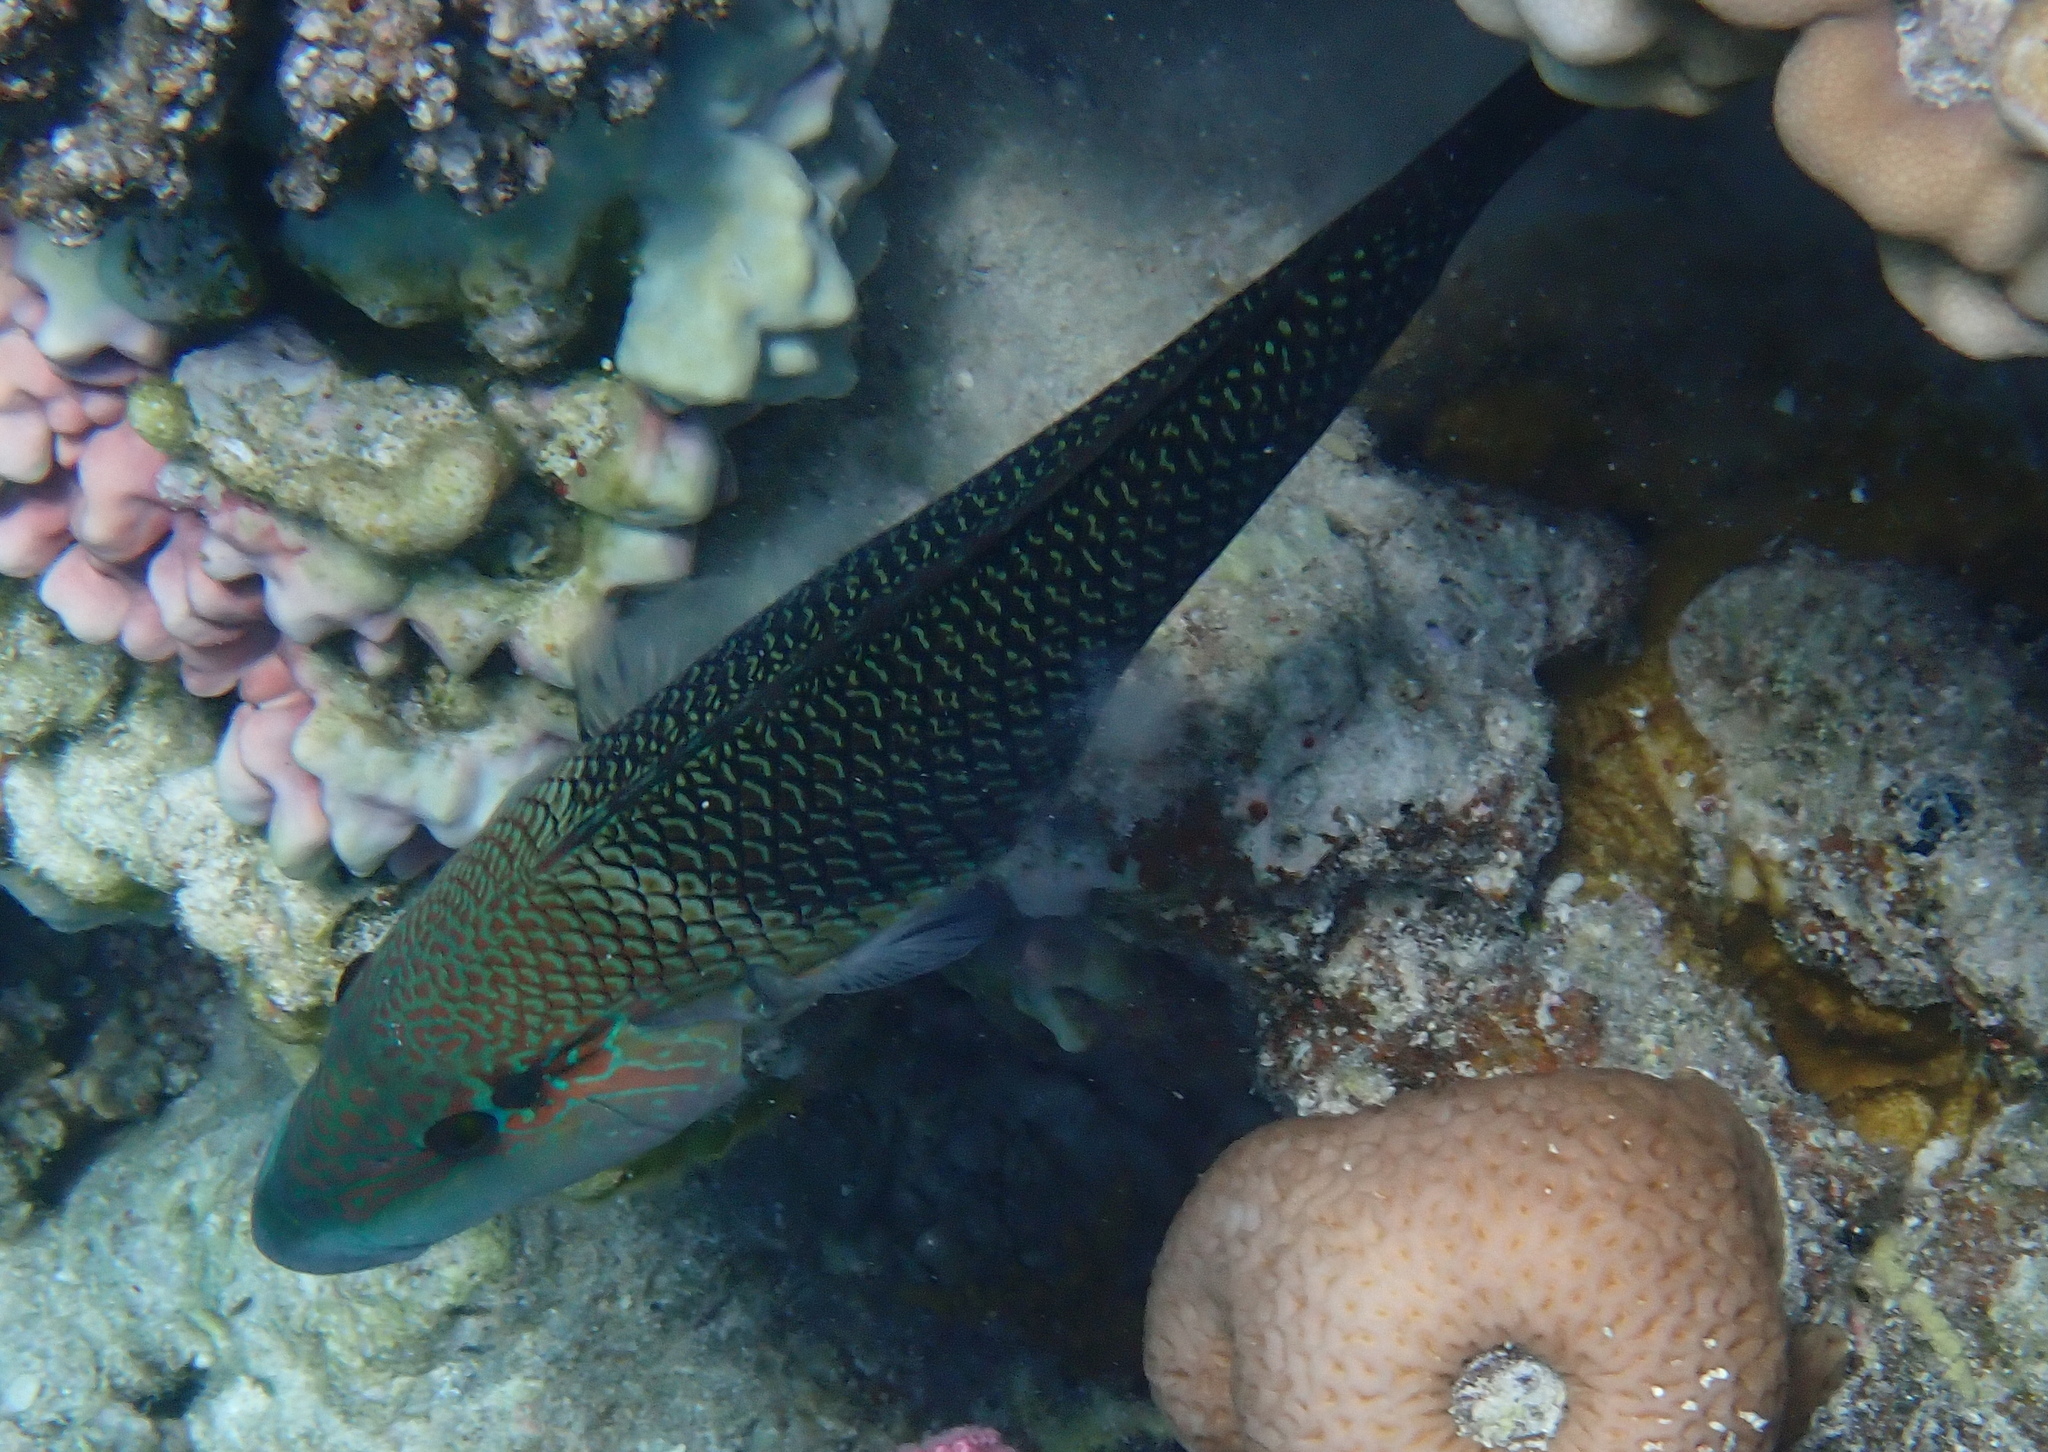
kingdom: Animalia
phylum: Chordata
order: Perciformes
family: Labridae
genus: Hemigymnus
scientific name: Hemigymnus melapterus
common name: Blackeye thicklip
